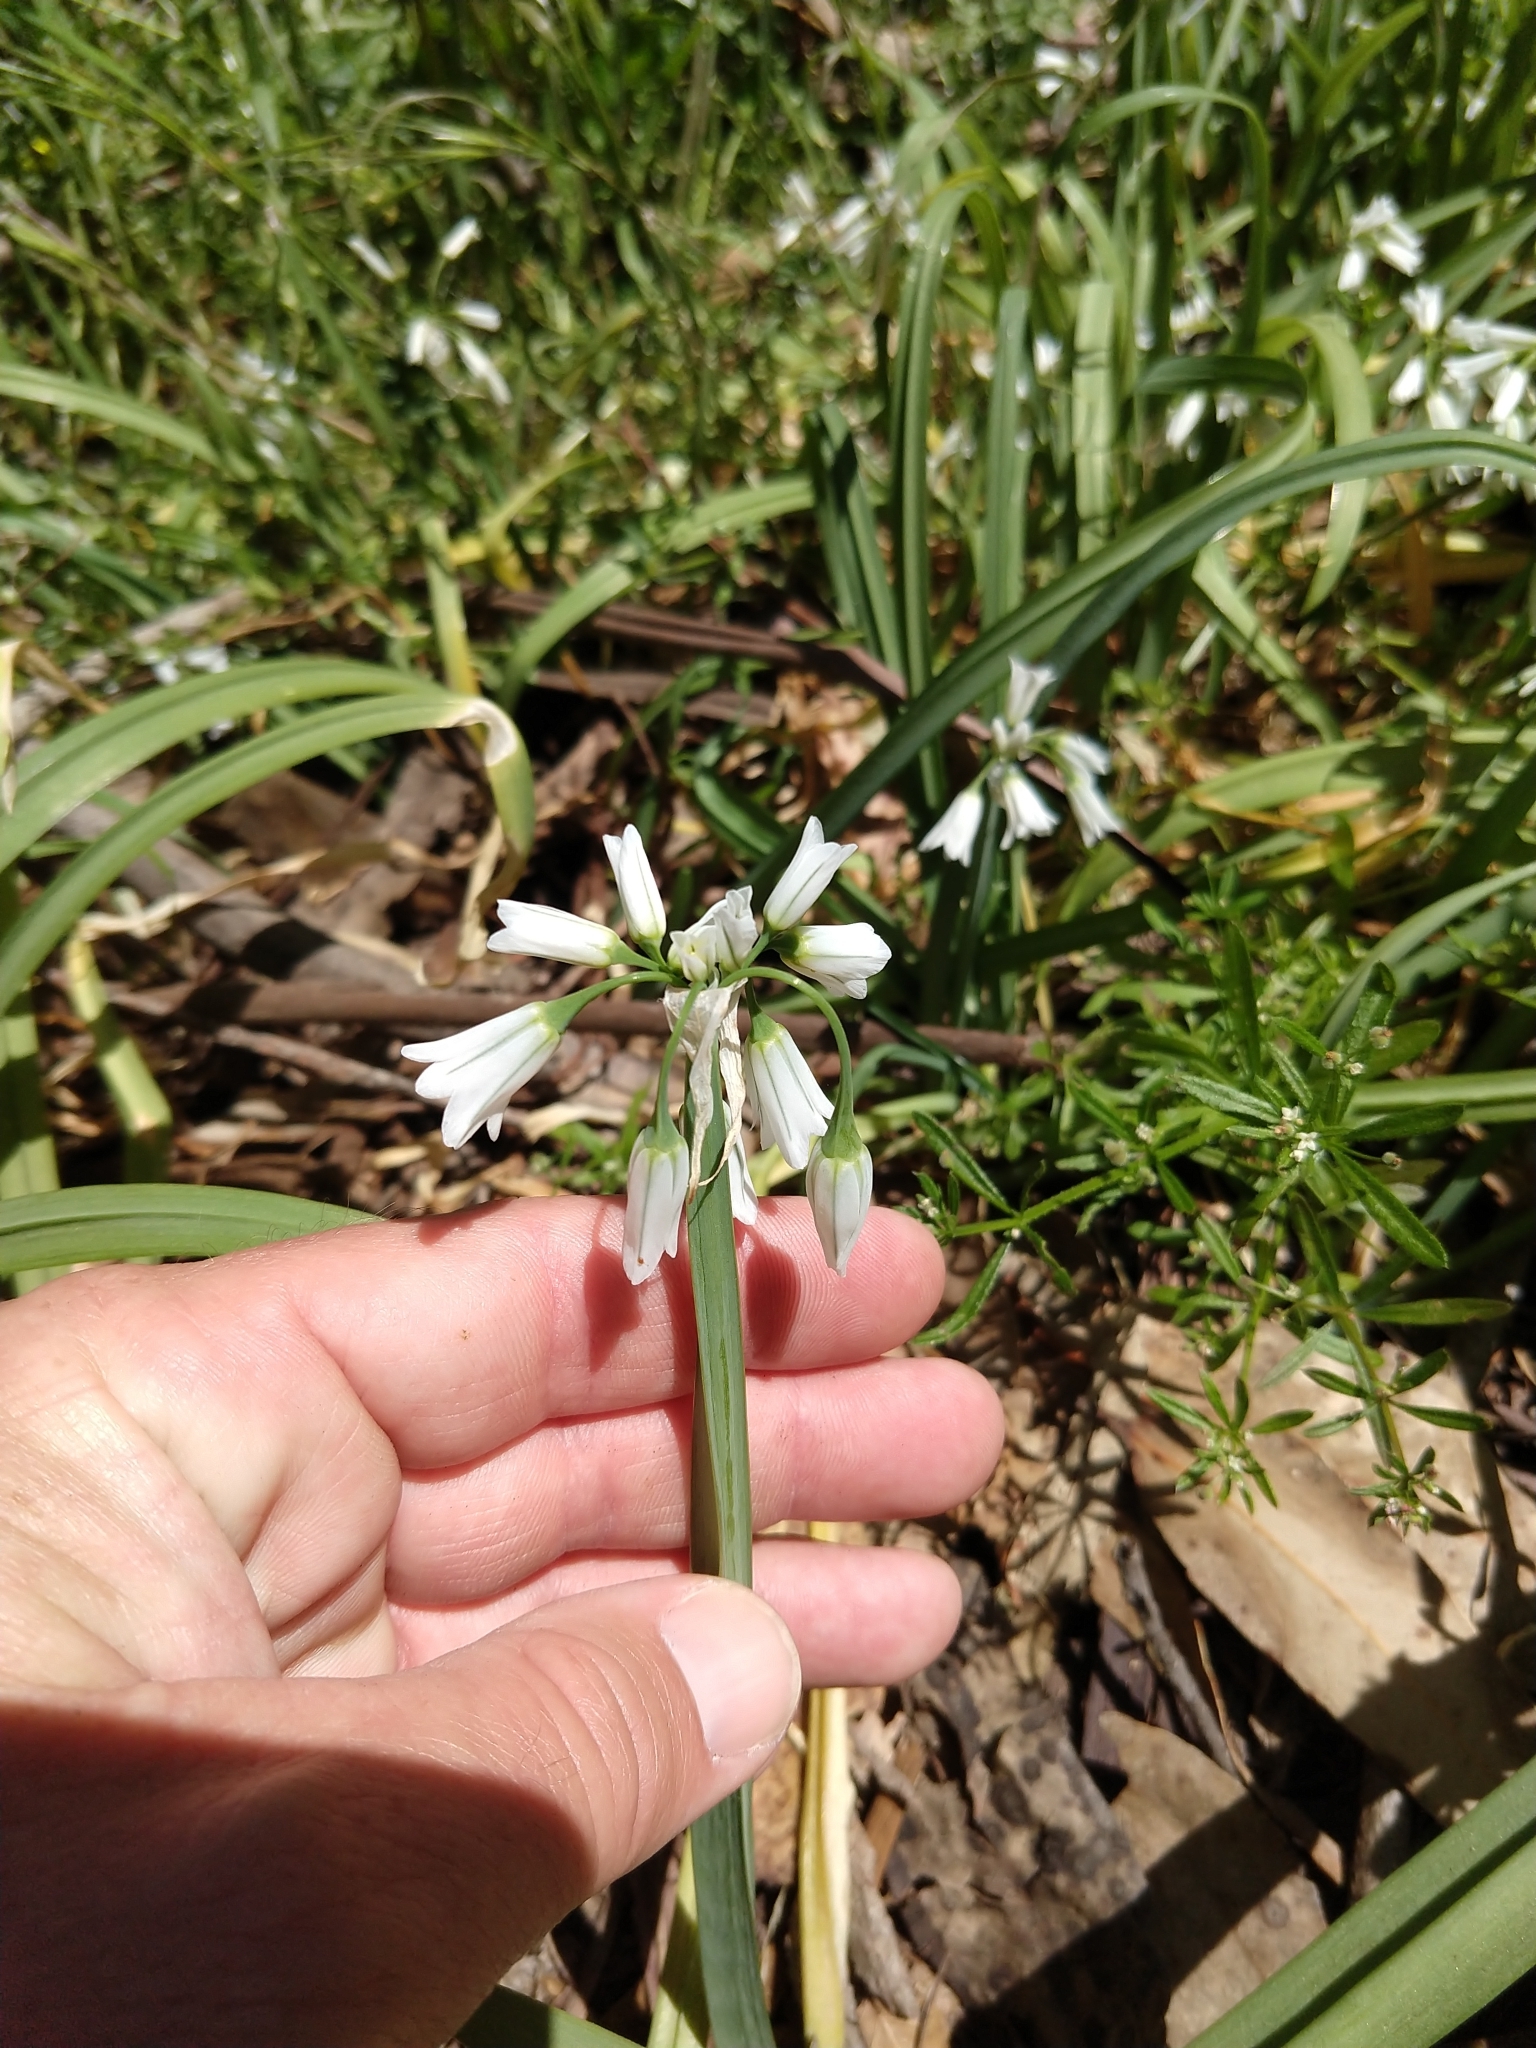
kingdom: Plantae
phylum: Tracheophyta
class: Liliopsida
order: Asparagales
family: Amaryllidaceae
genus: Allium
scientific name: Allium triquetrum
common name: Three-cornered garlic
